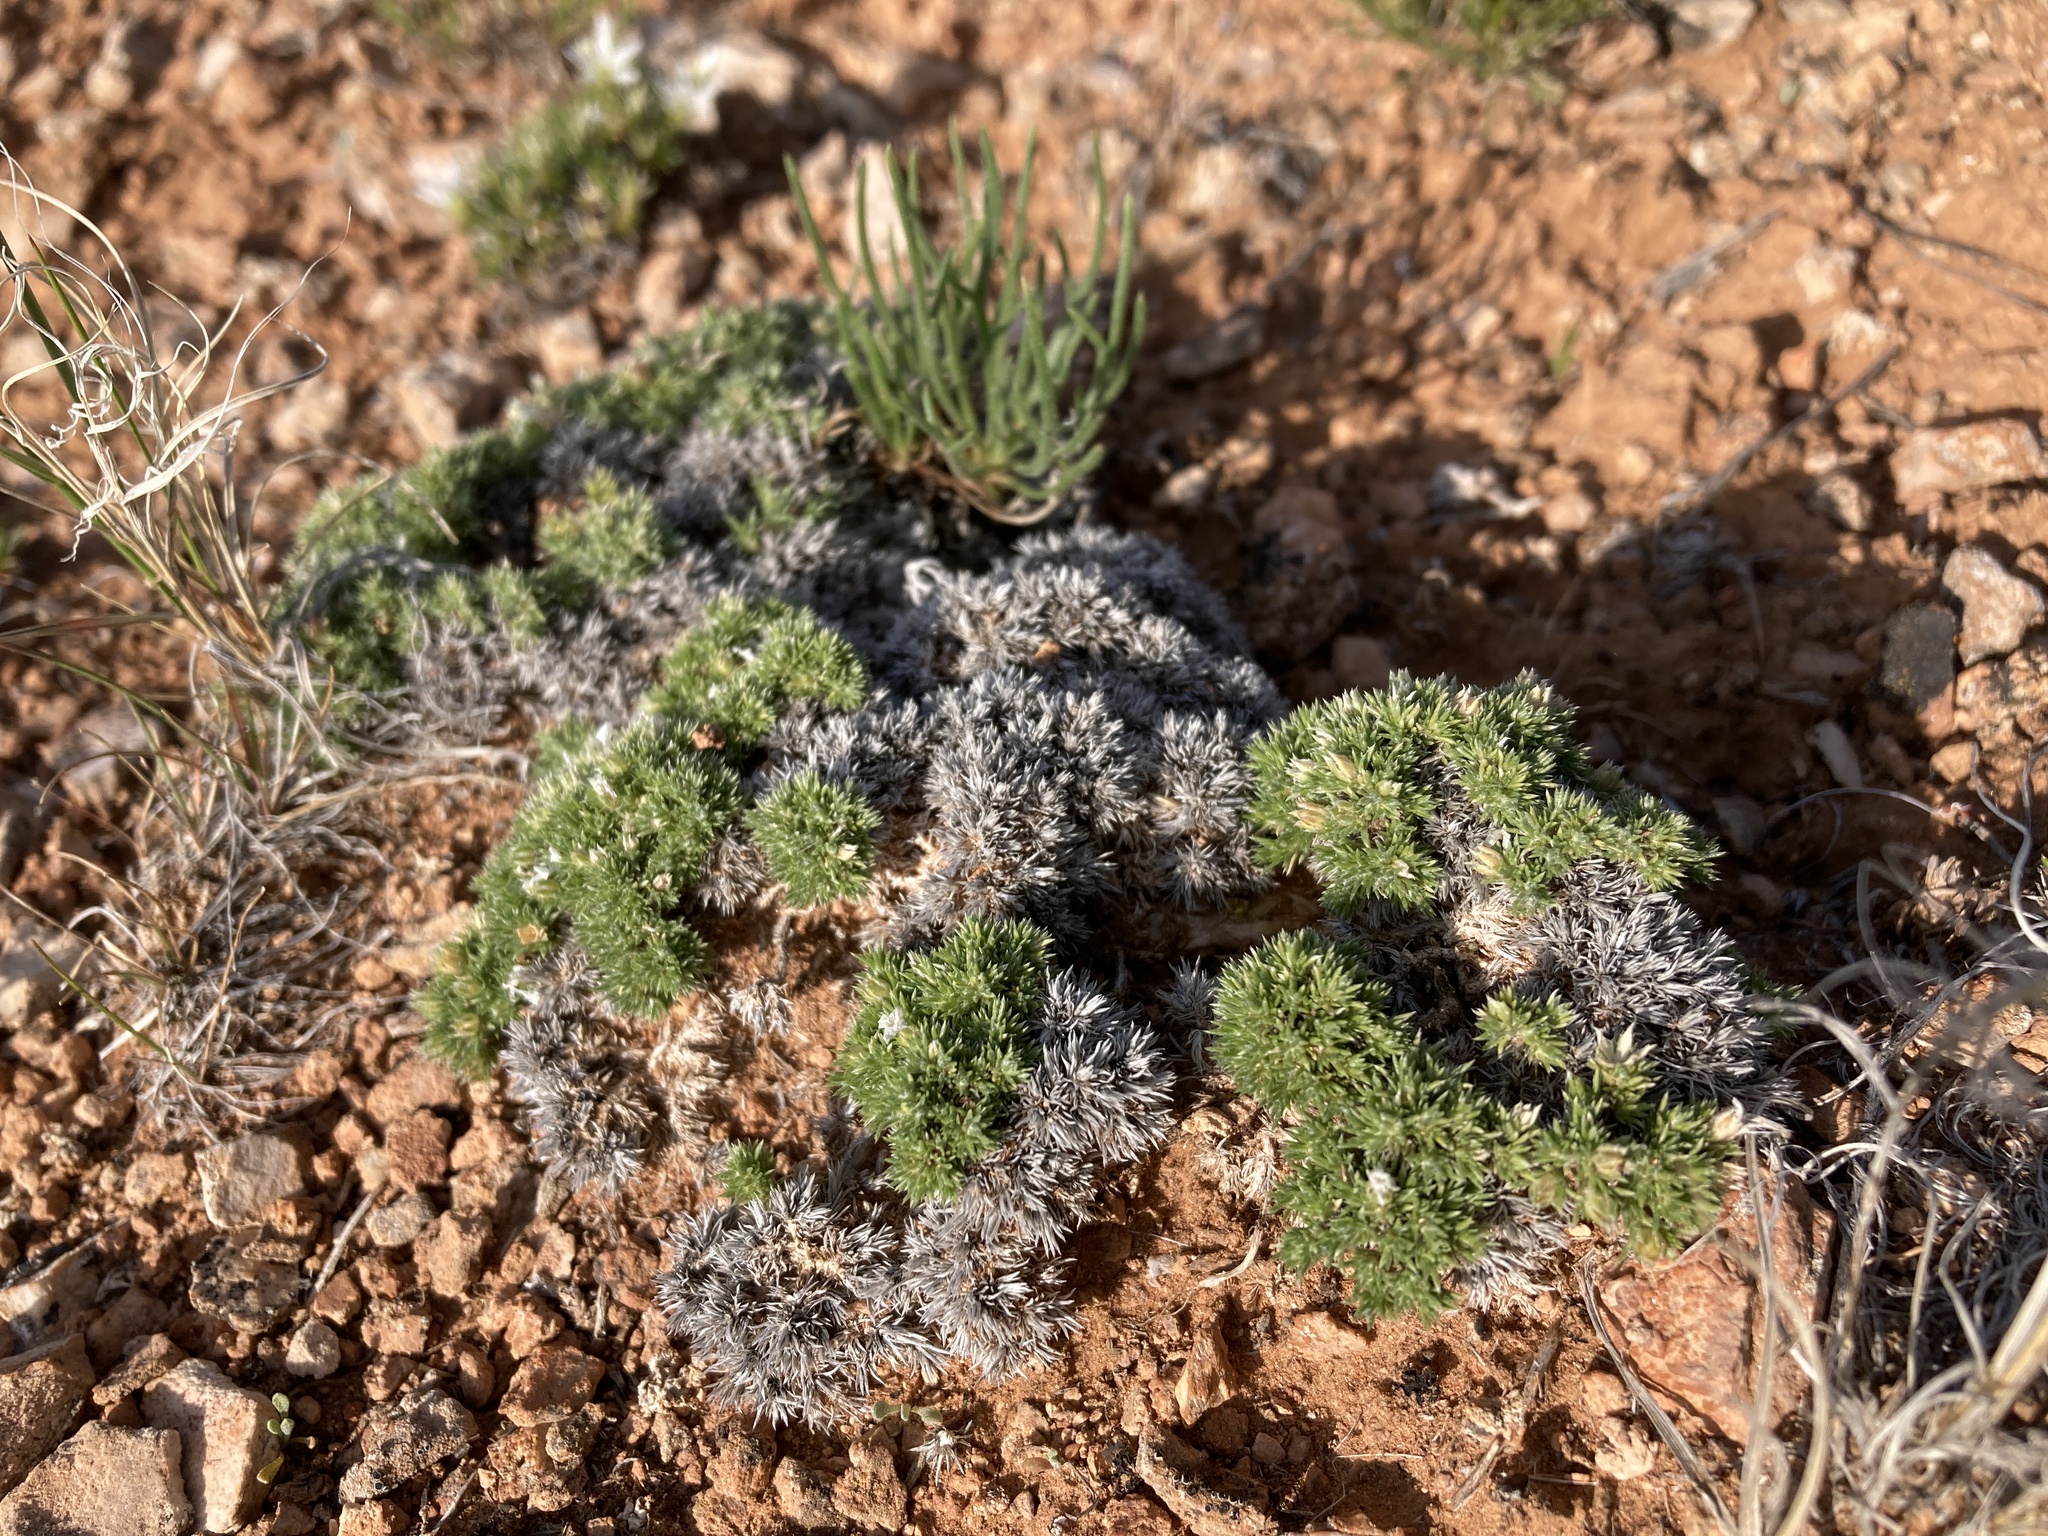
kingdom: Plantae
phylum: Tracheophyta
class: Magnoliopsida
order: Ericales
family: Polemoniaceae
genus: Phlox
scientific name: Phlox hoodii
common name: Moss phlox
